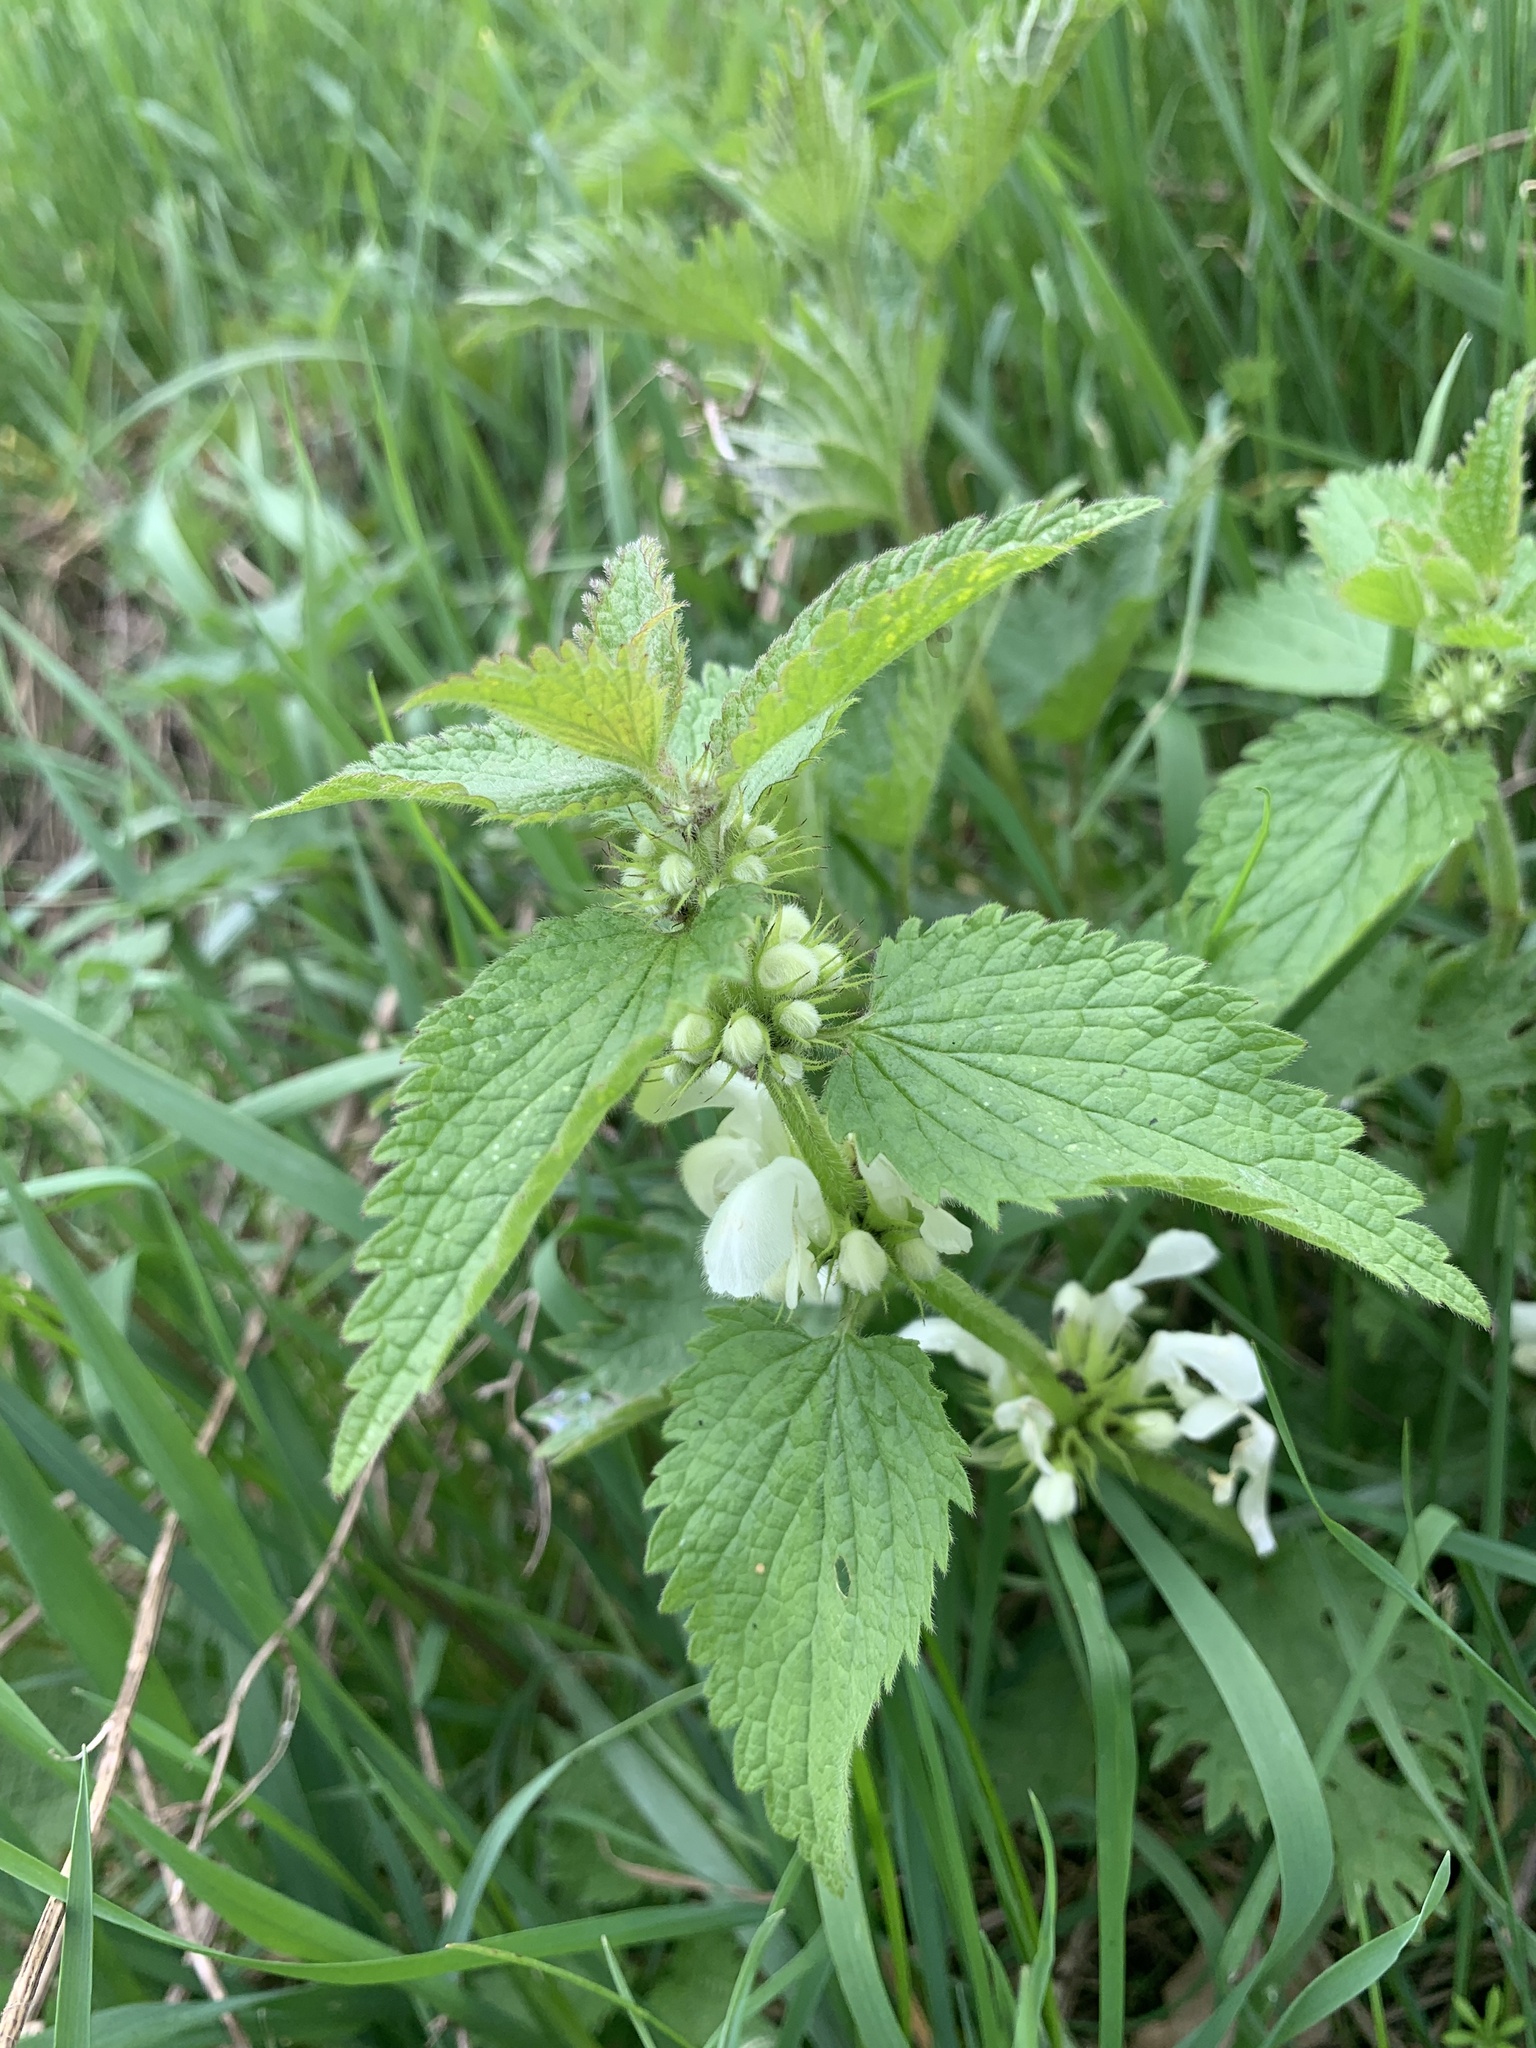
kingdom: Plantae
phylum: Tracheophyta
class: Magnoliopsida
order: Lamiales
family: Lamiaceae
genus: Lamium
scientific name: Lamium album
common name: White dead-nettle
